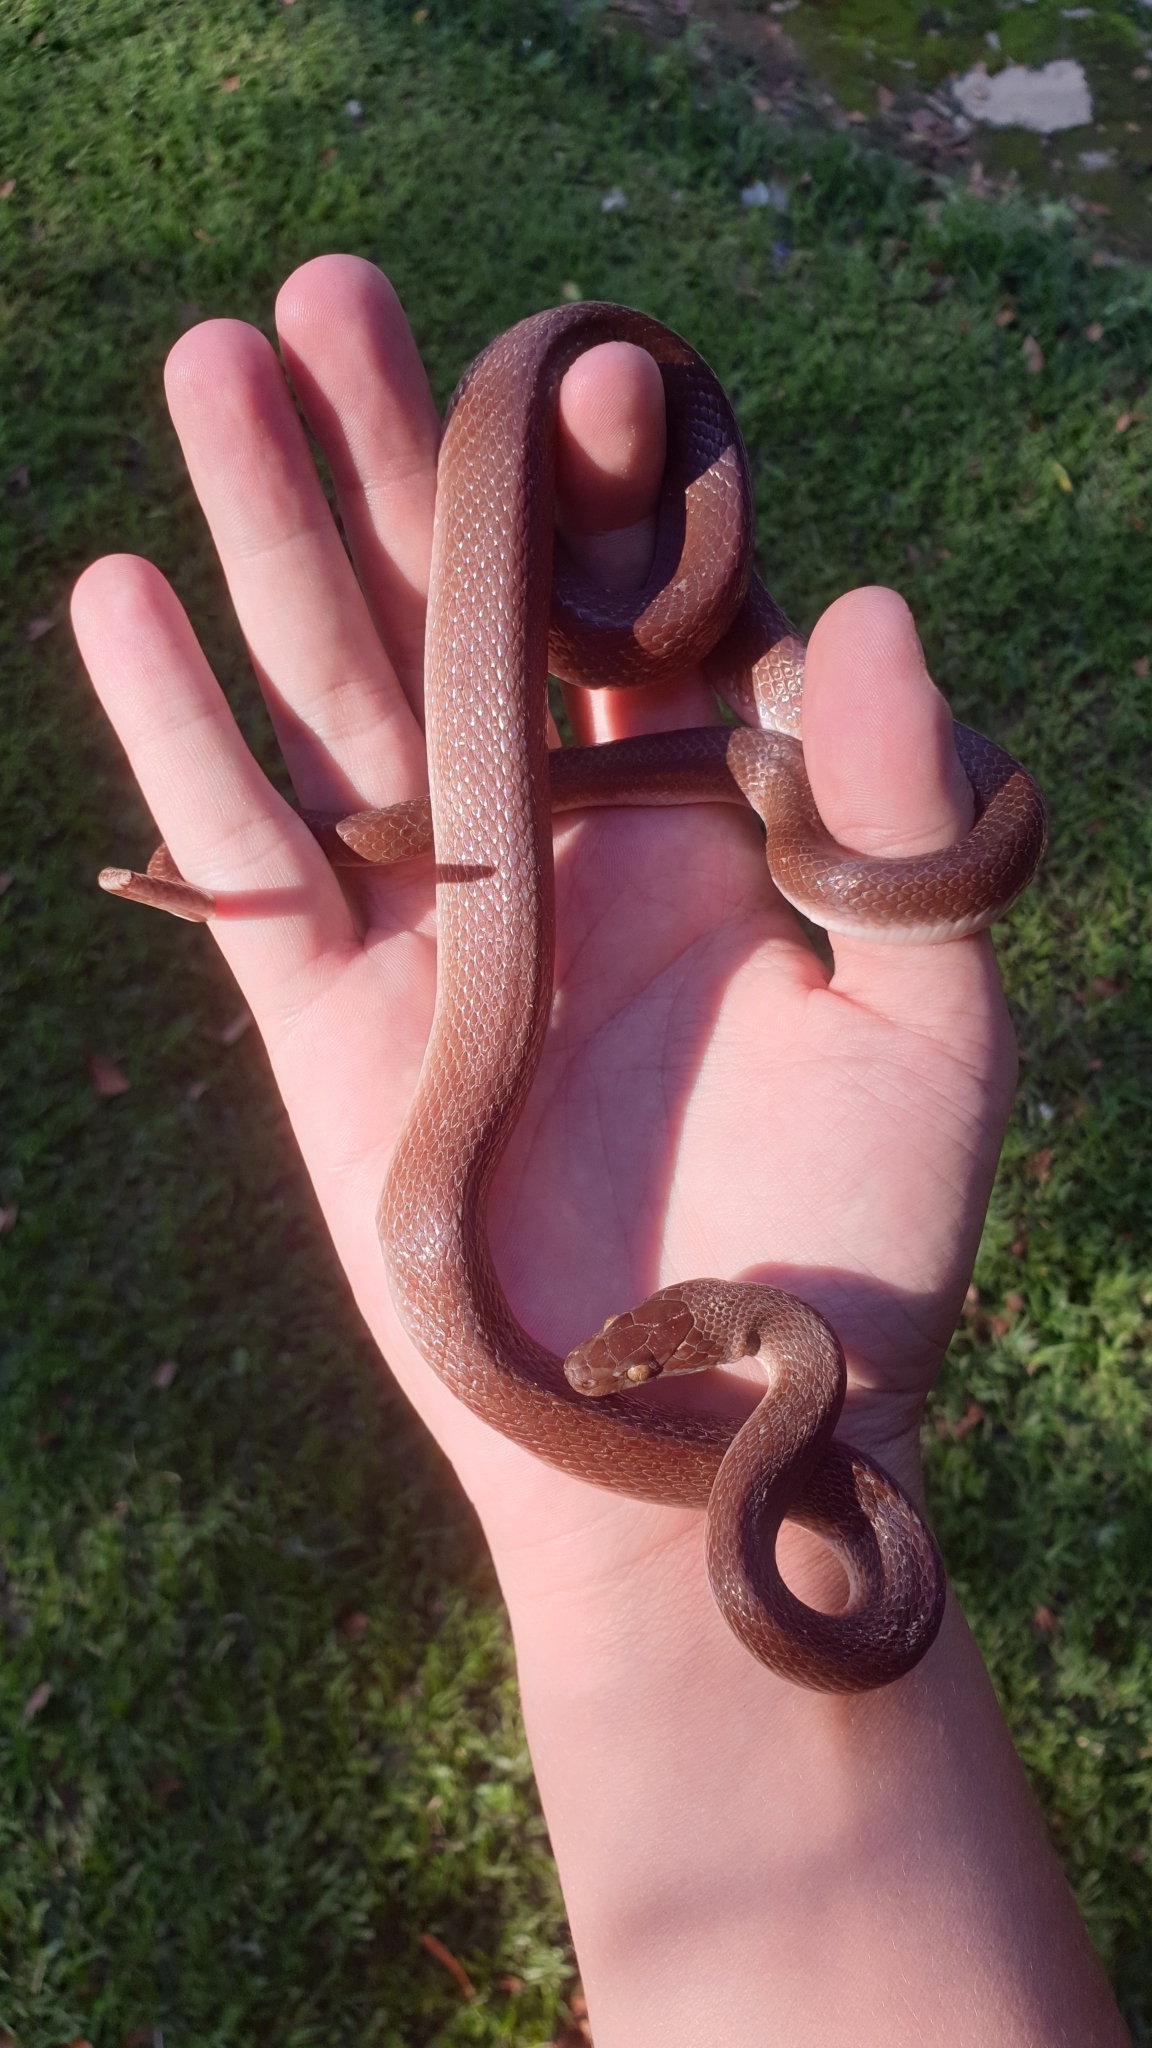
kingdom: Animalia
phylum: Chordata
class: Squamata
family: Lamprophiidae
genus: Boaedon
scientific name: Boaedon capensis
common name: Brown house snake
